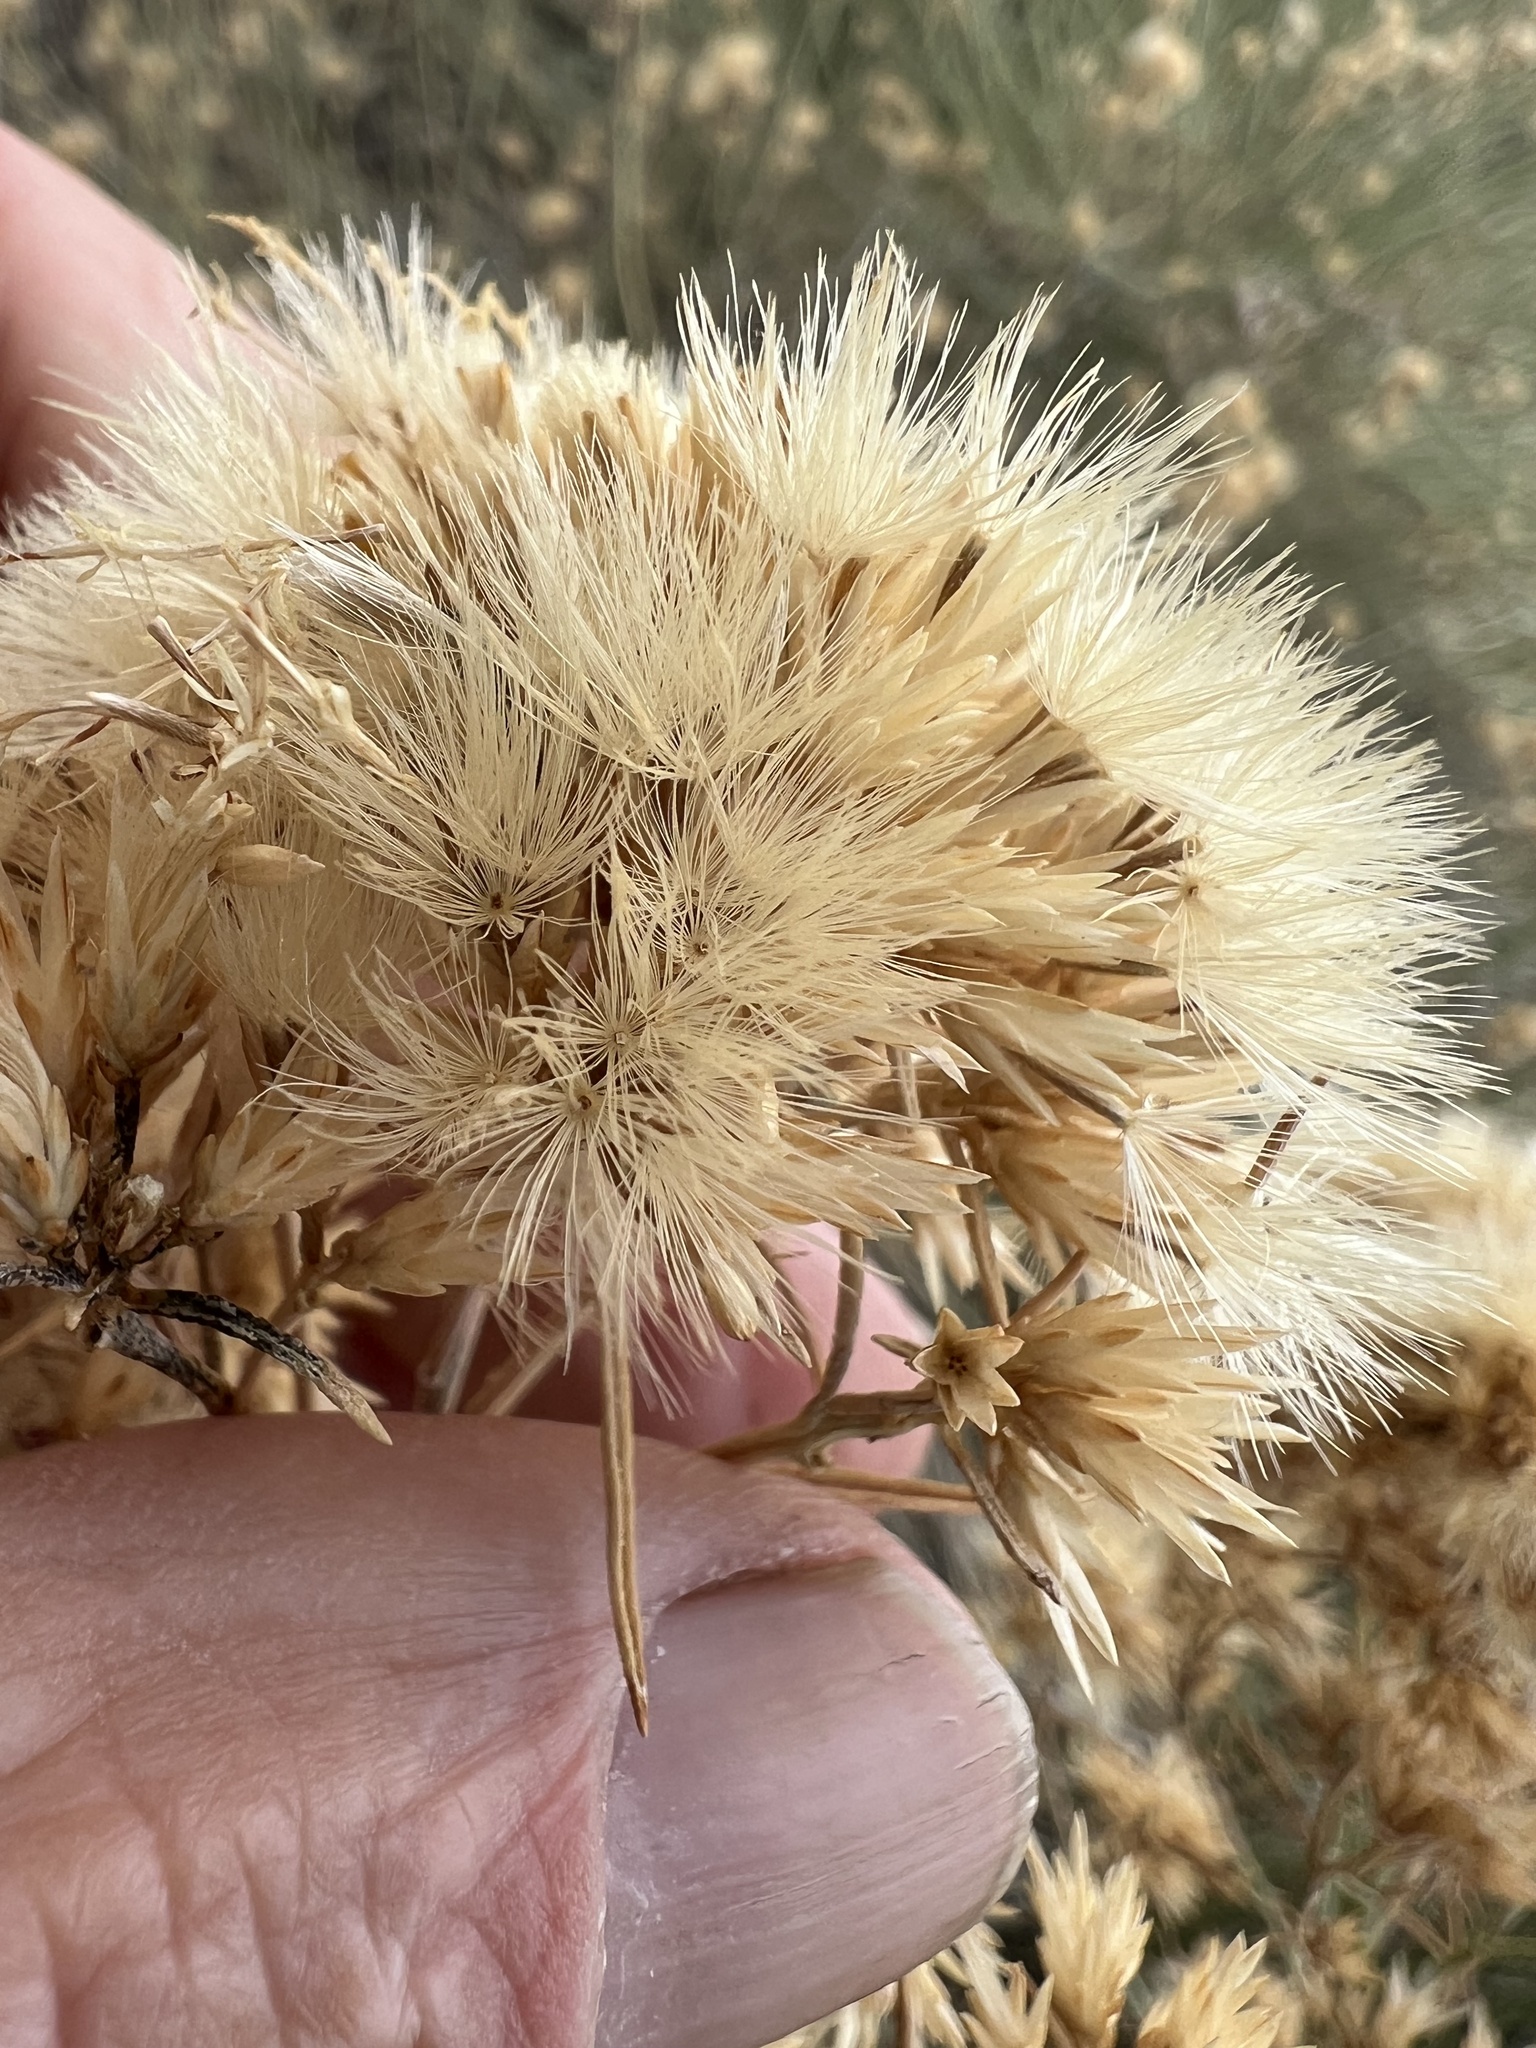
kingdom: Plantae
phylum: Tracheophyta
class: Magnoliopsida
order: Asterales
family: Asteraceae
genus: Ericameria
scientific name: Ericameria nauseosa
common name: Rubber rabbitbrush
